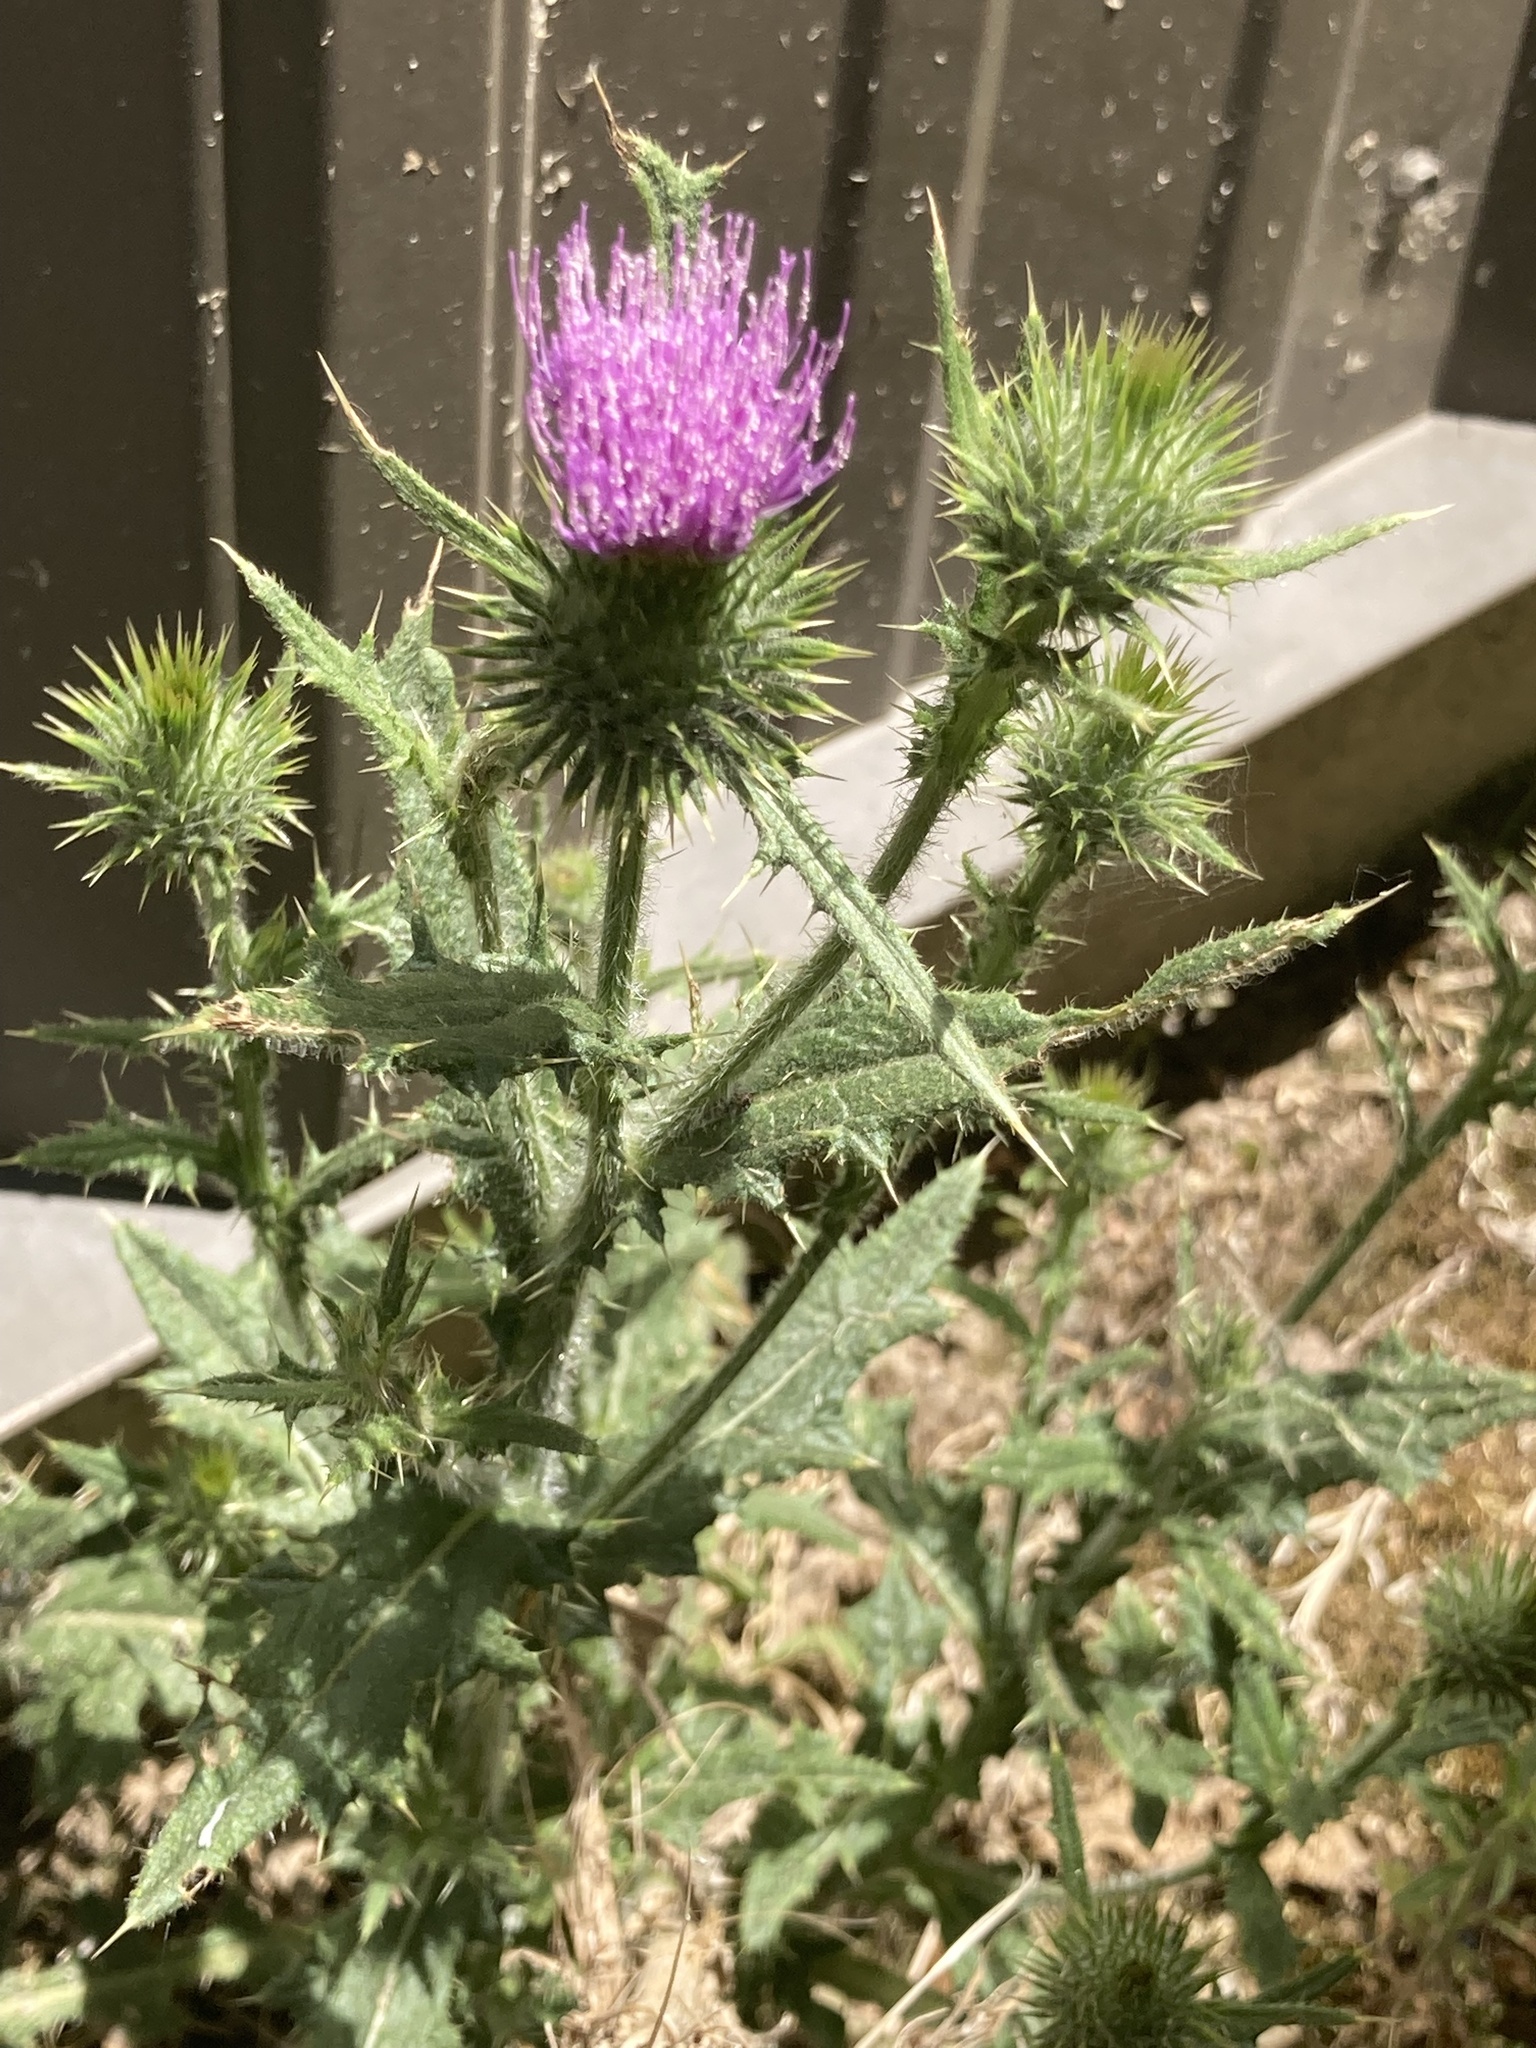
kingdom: Plantae
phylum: Tracheophyta
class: Magnoliopsida
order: Asterales
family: Asteraceae
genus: Cirsium
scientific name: Cirsium vulgare
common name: Bull thistle
